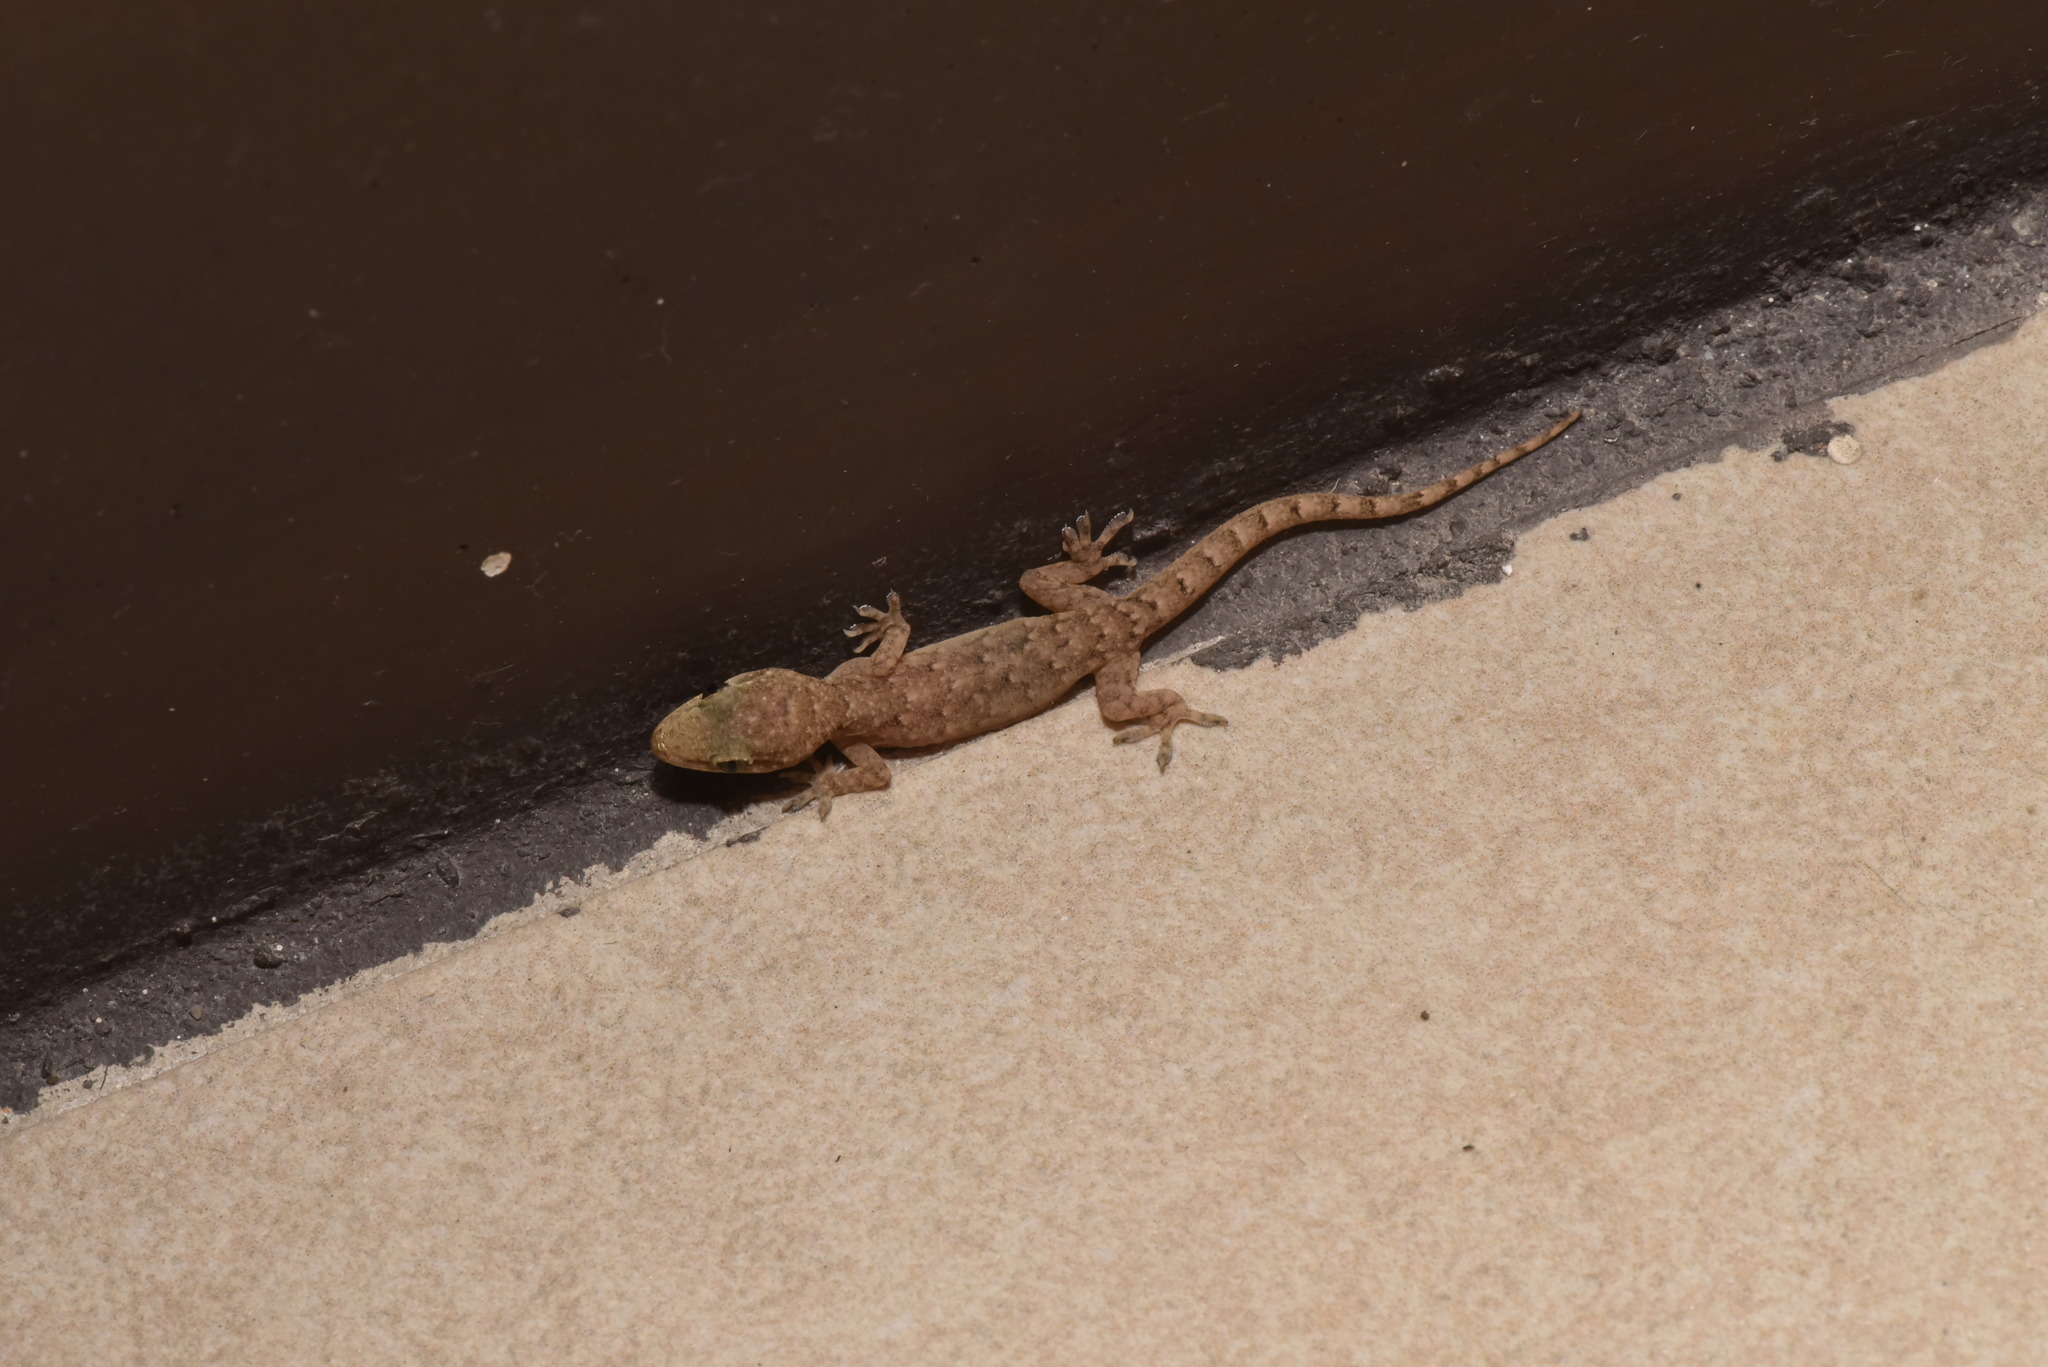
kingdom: Animalia
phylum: Chordata
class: Squamata
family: Gekkonidae
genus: Hemidactylus
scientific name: Hemidactylus bowringii
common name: Oriental leaf-toed gecko
